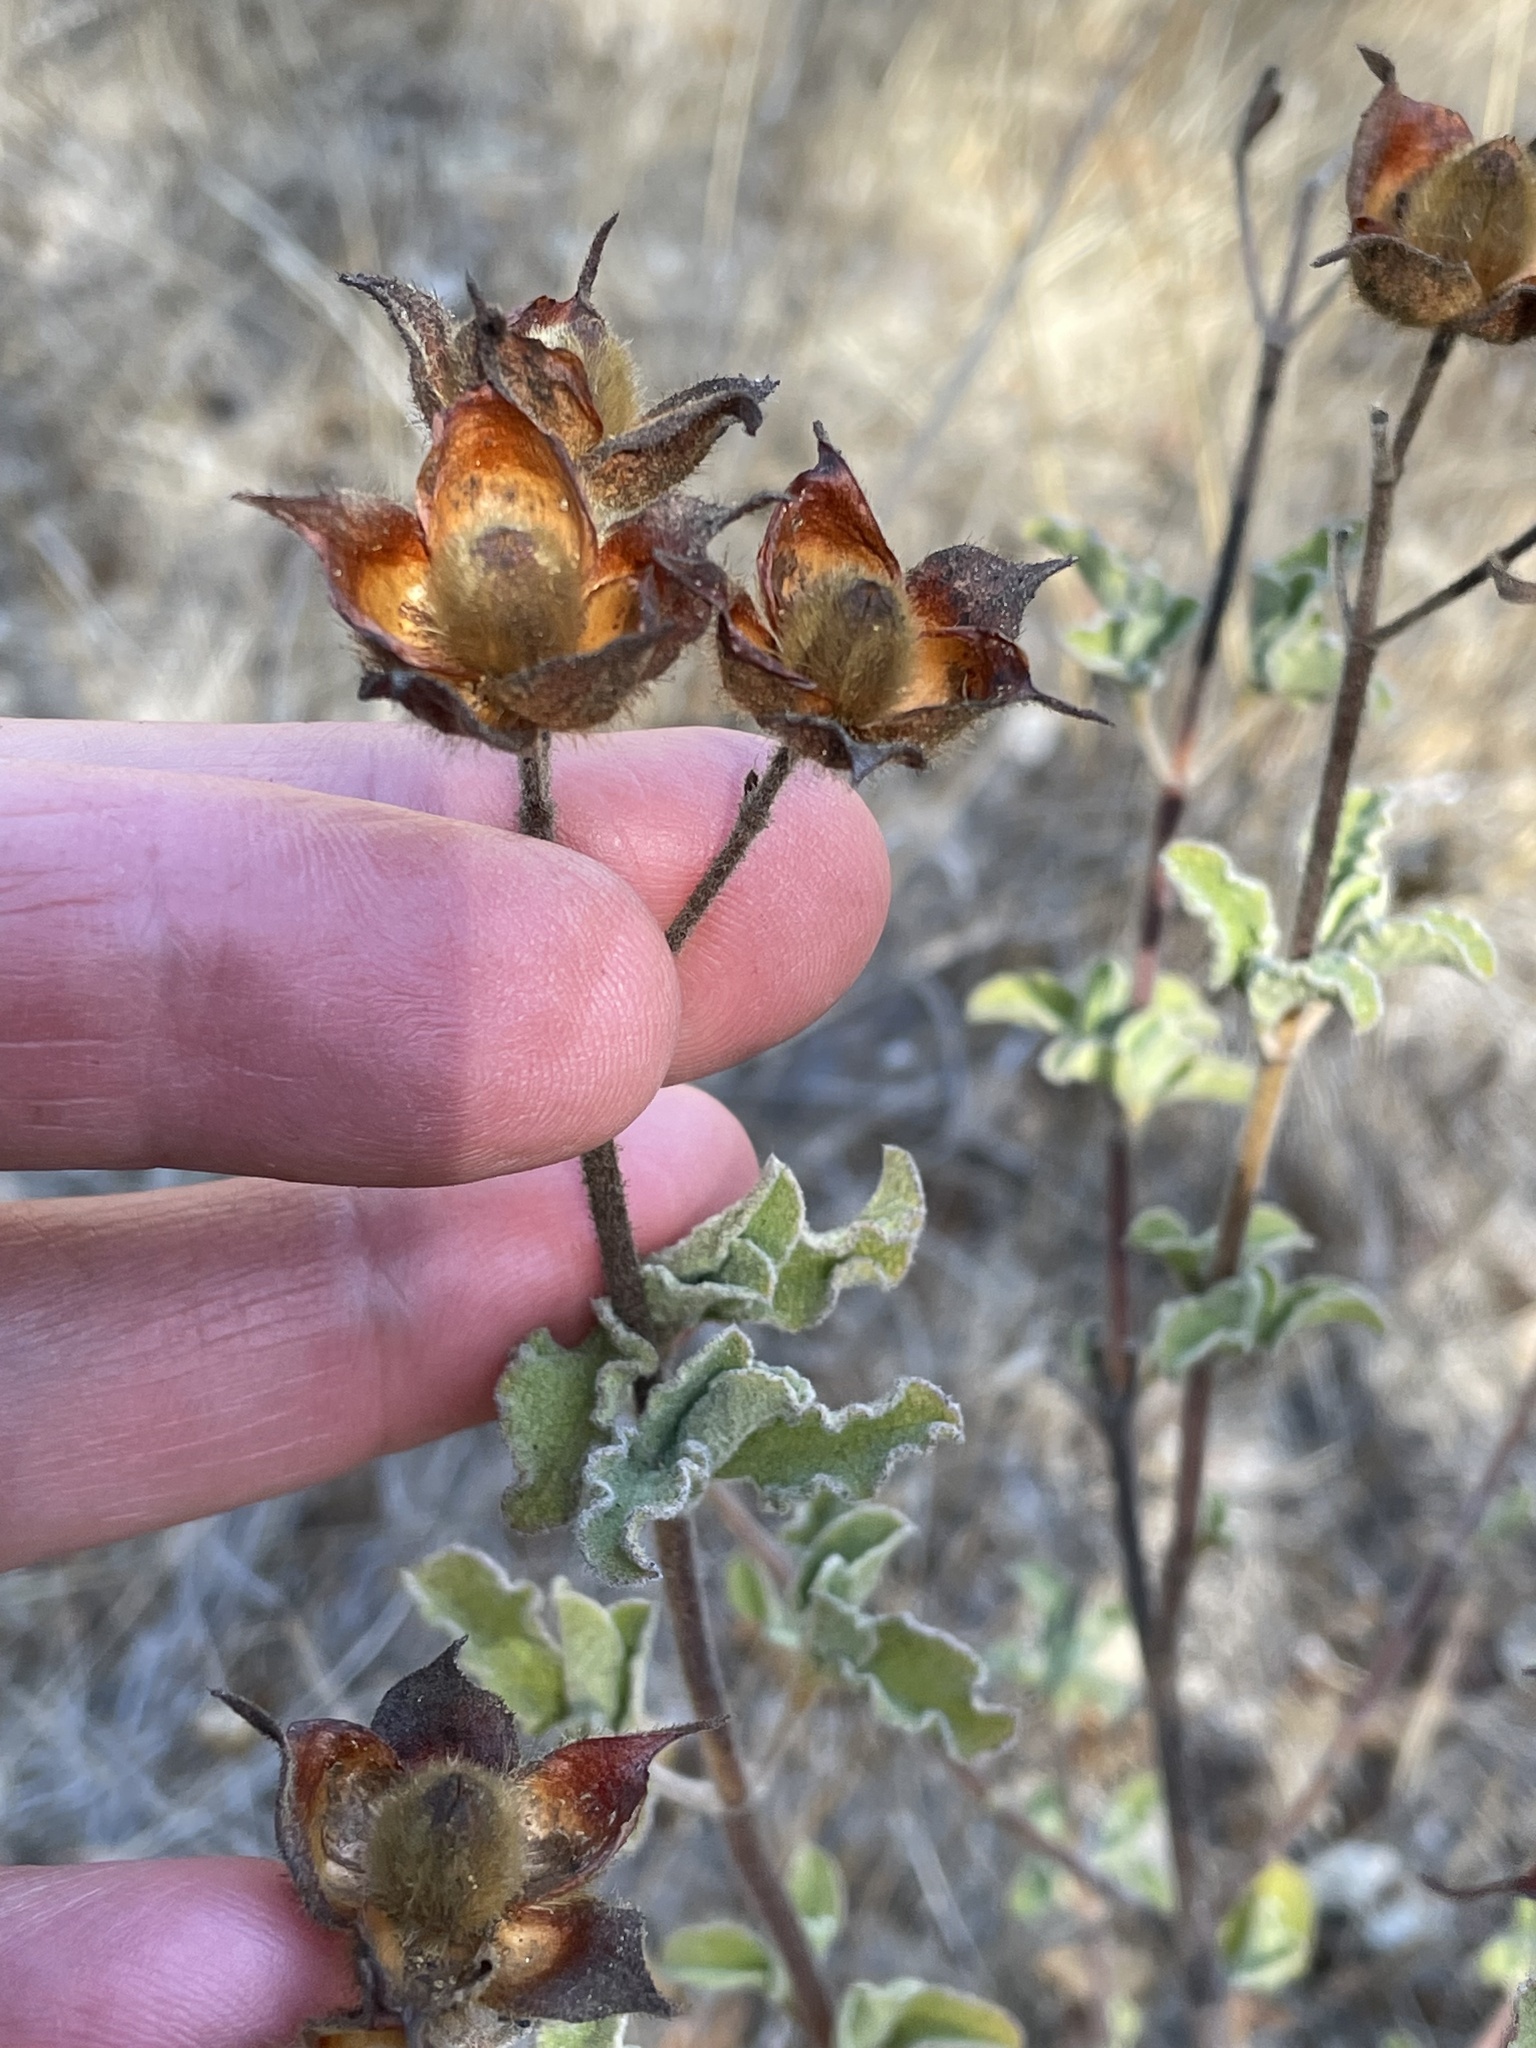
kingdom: Plantae
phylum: Tracheophyta
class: Magnoliopsida
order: Malvales
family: Cistaceae
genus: Cistus
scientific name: Cistus creticus
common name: Cretan rockrose
